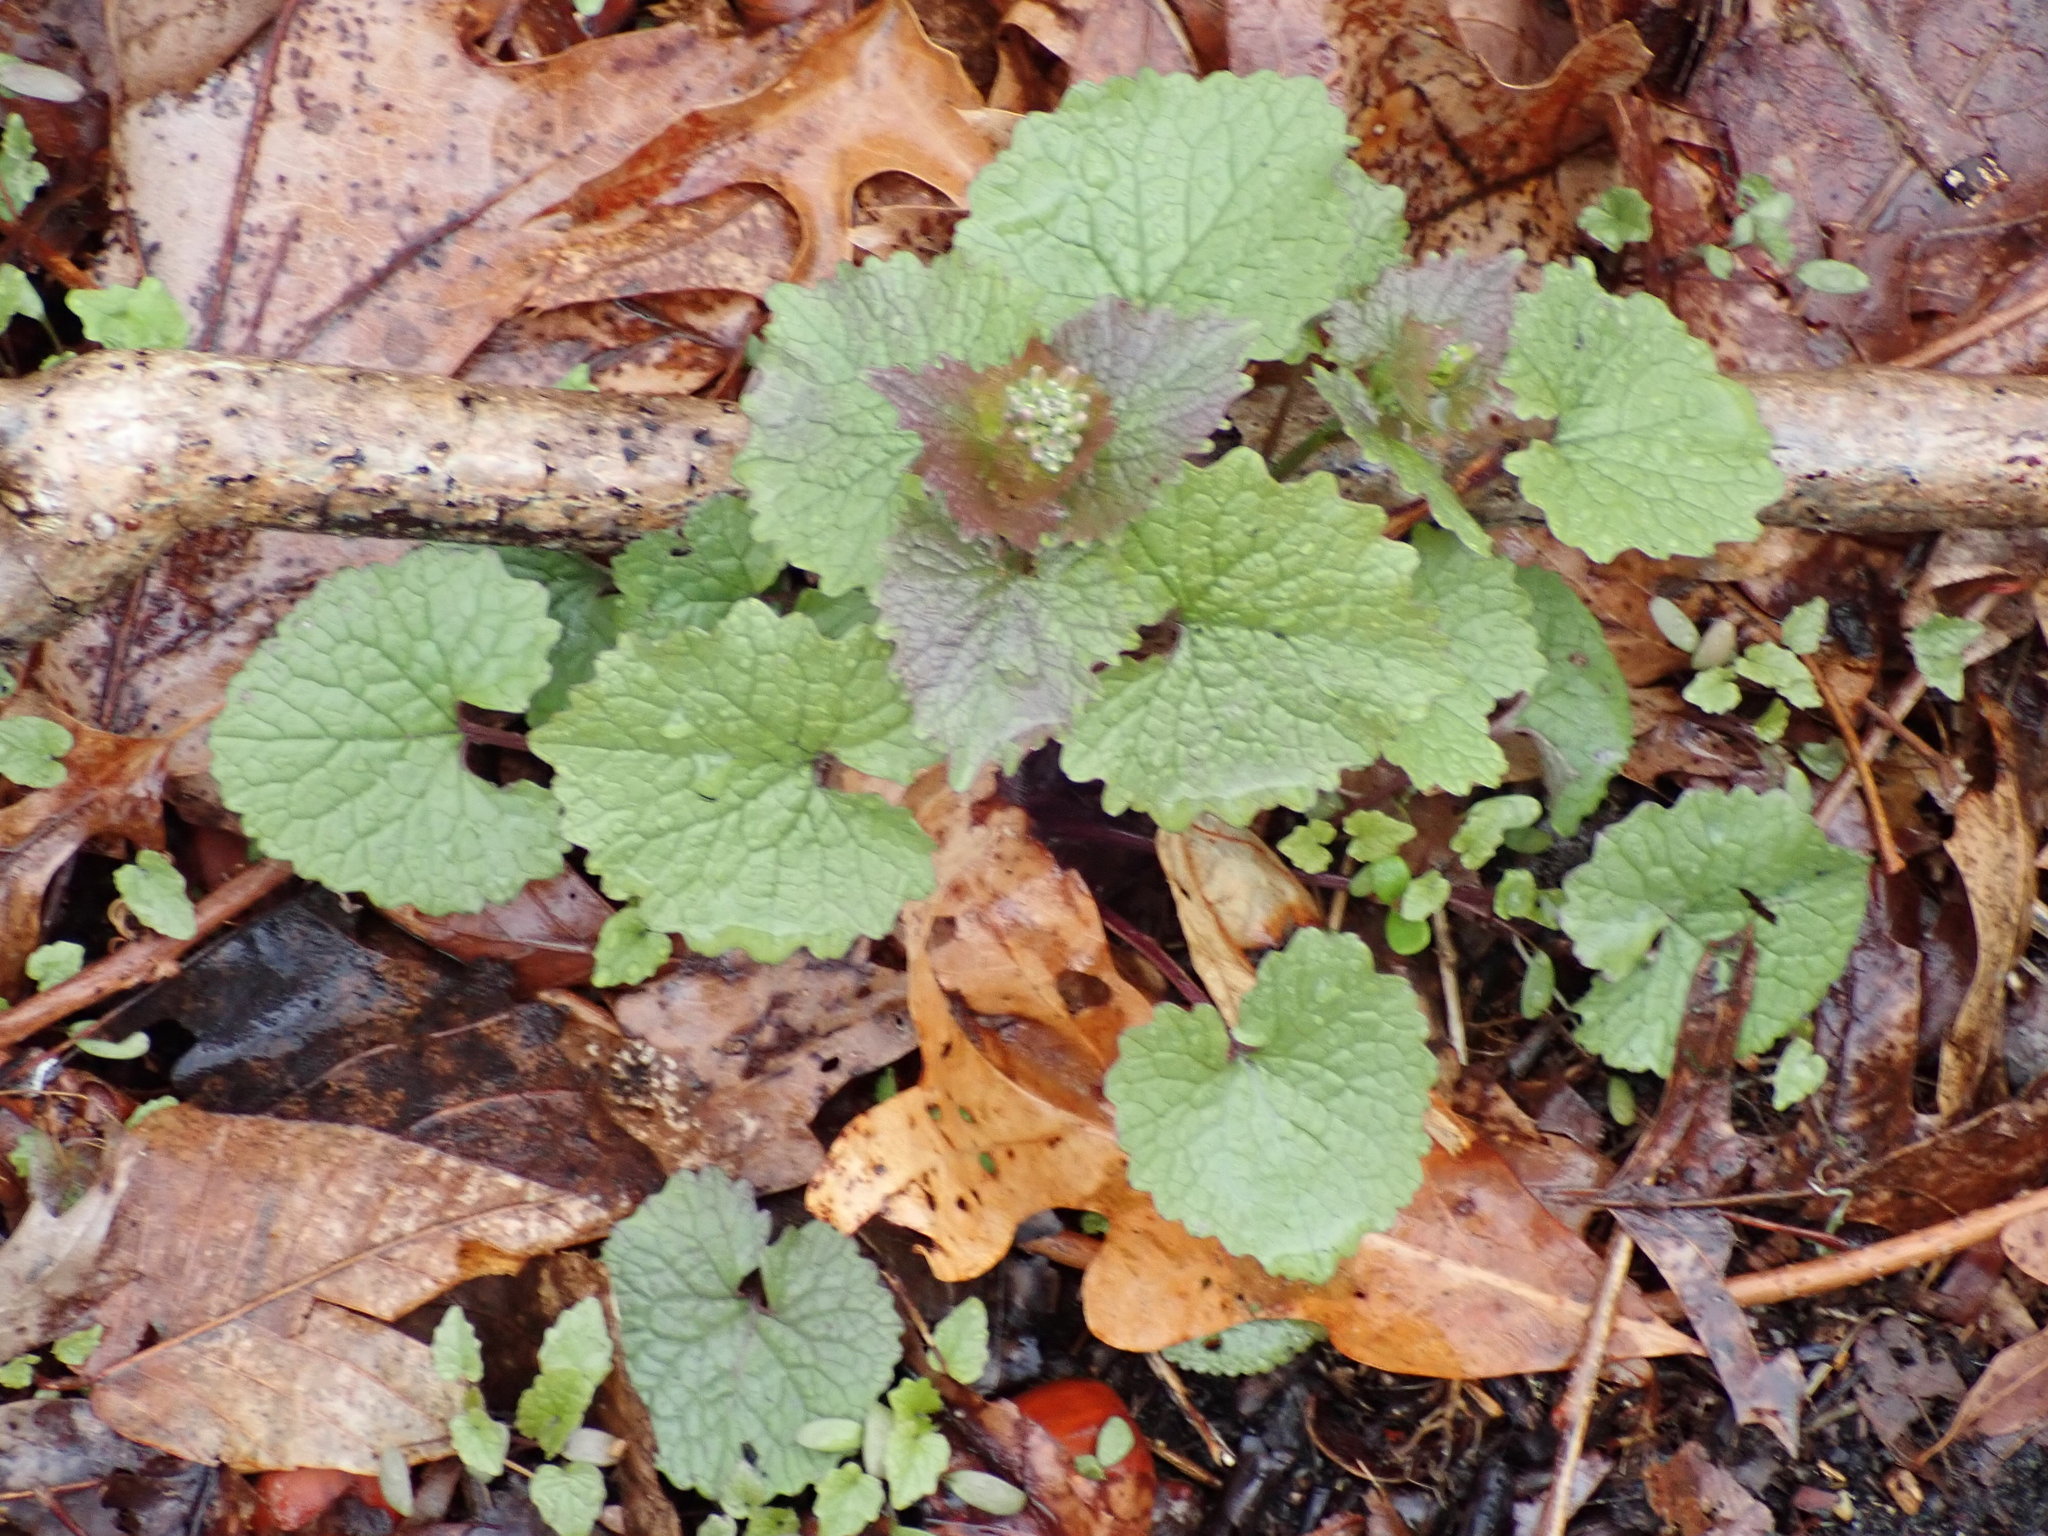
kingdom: Plantae
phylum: Tracheophyta
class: Magnoliopsida
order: Brassicales
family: Brassicaceae
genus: Alliaria
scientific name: Alliaria petiolata
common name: Garlic mustard
